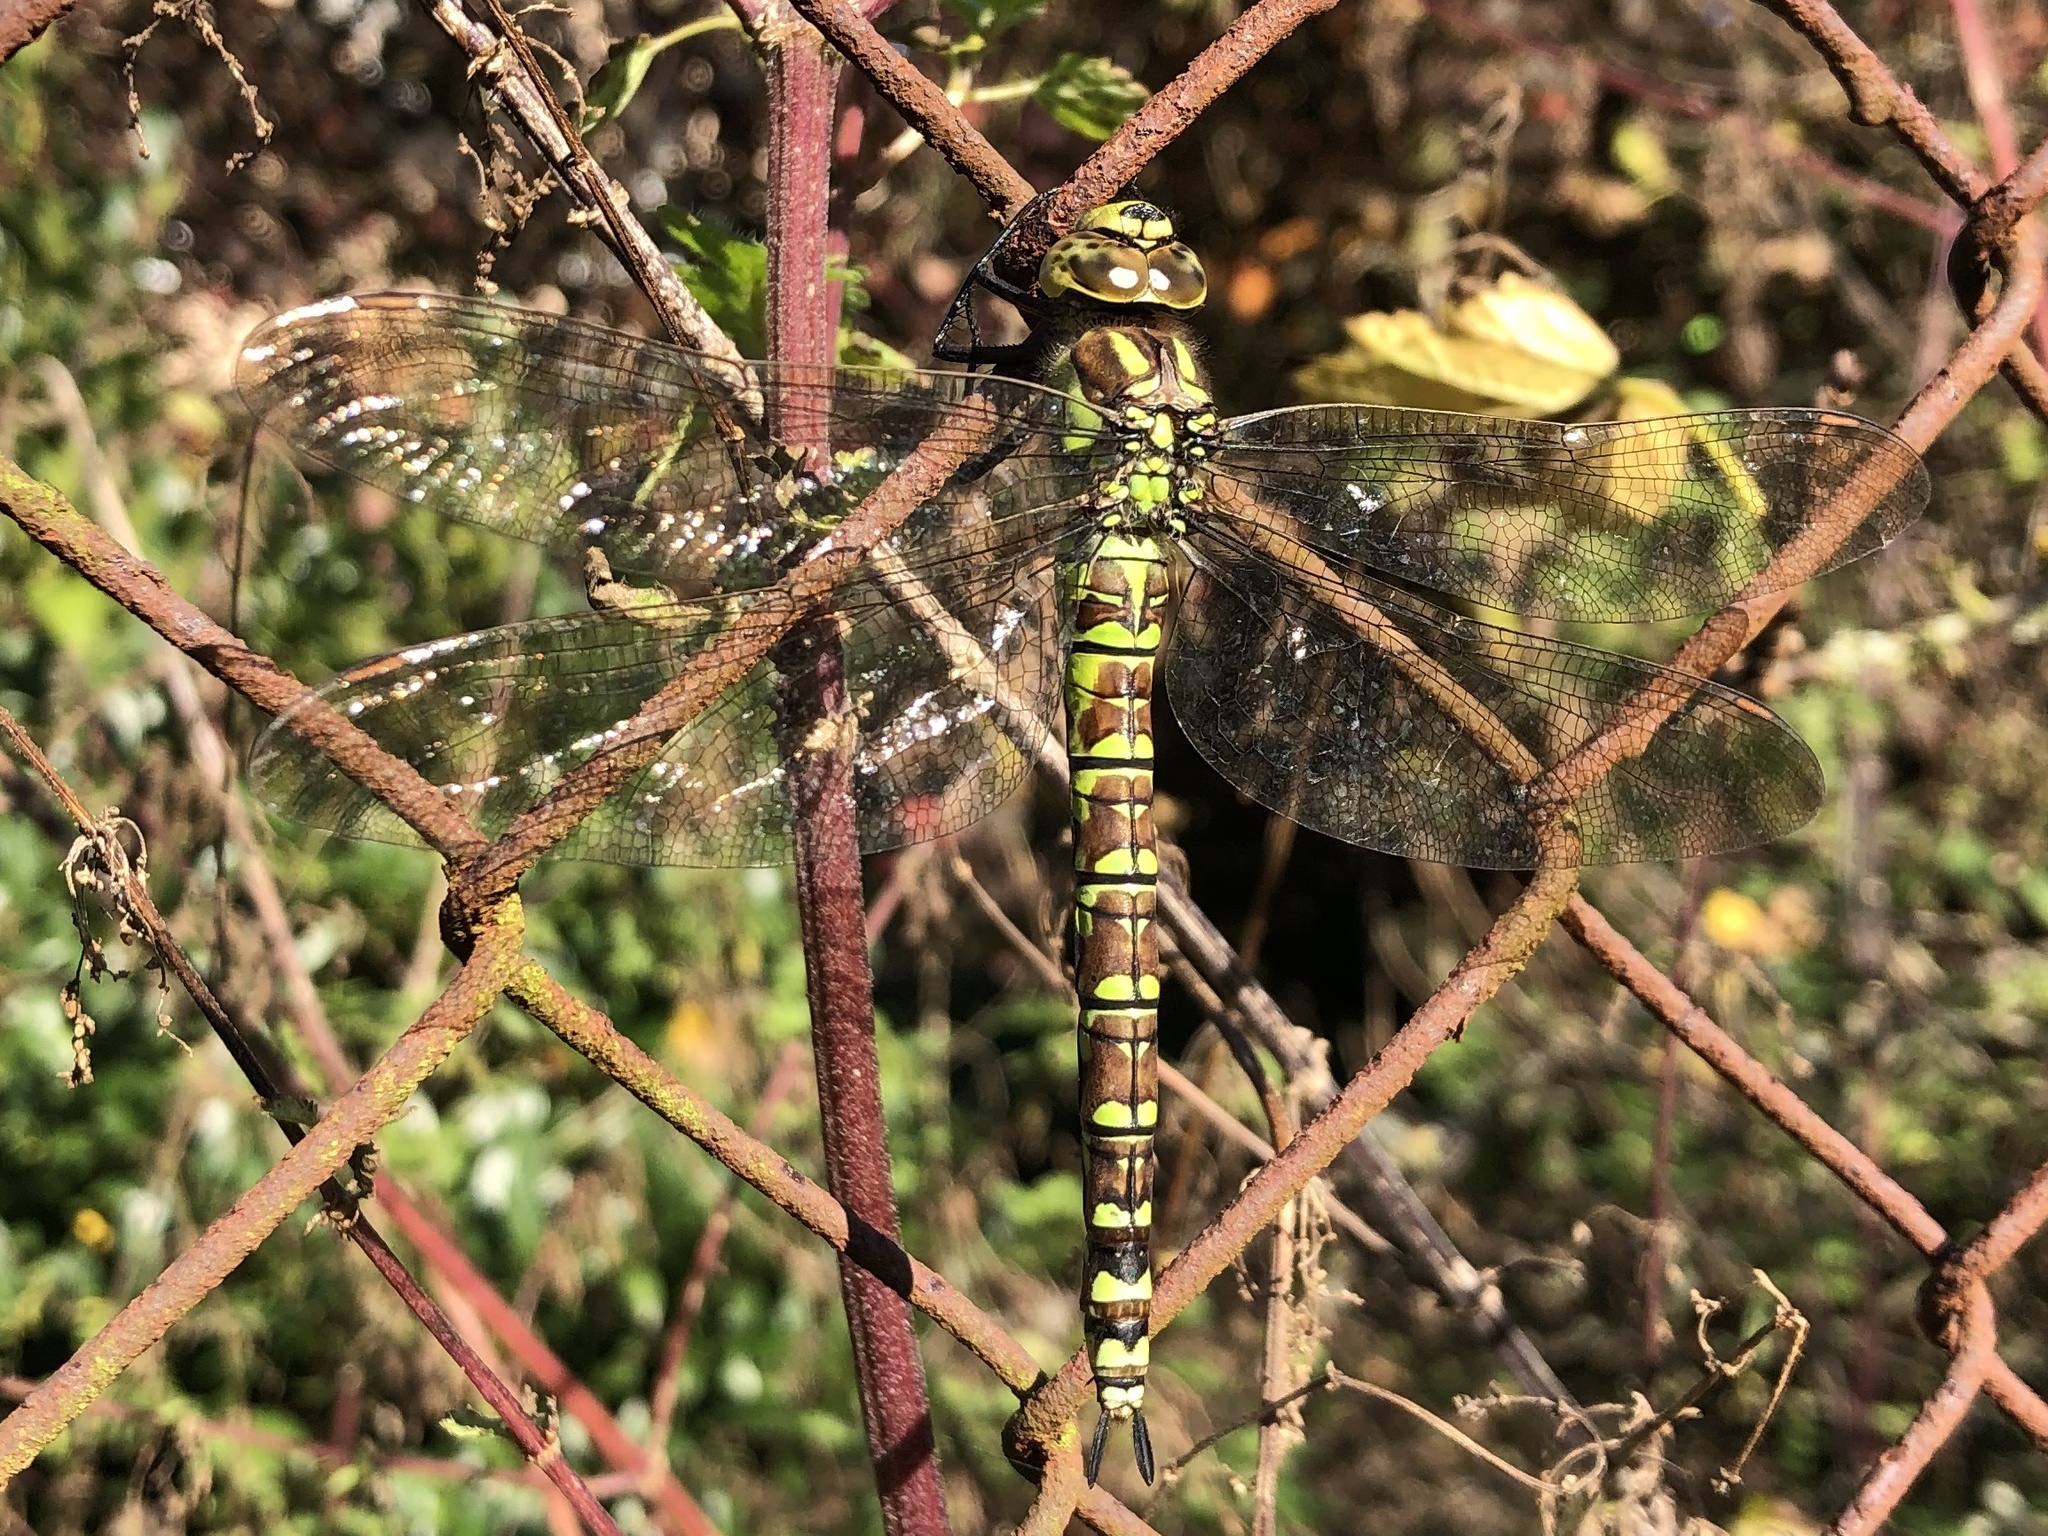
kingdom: Animalia
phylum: Arthropoda
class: Insecta
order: Odonata
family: Aeshnidae
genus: Aeshna
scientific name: Aeshna cyanea
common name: Southern hawker
